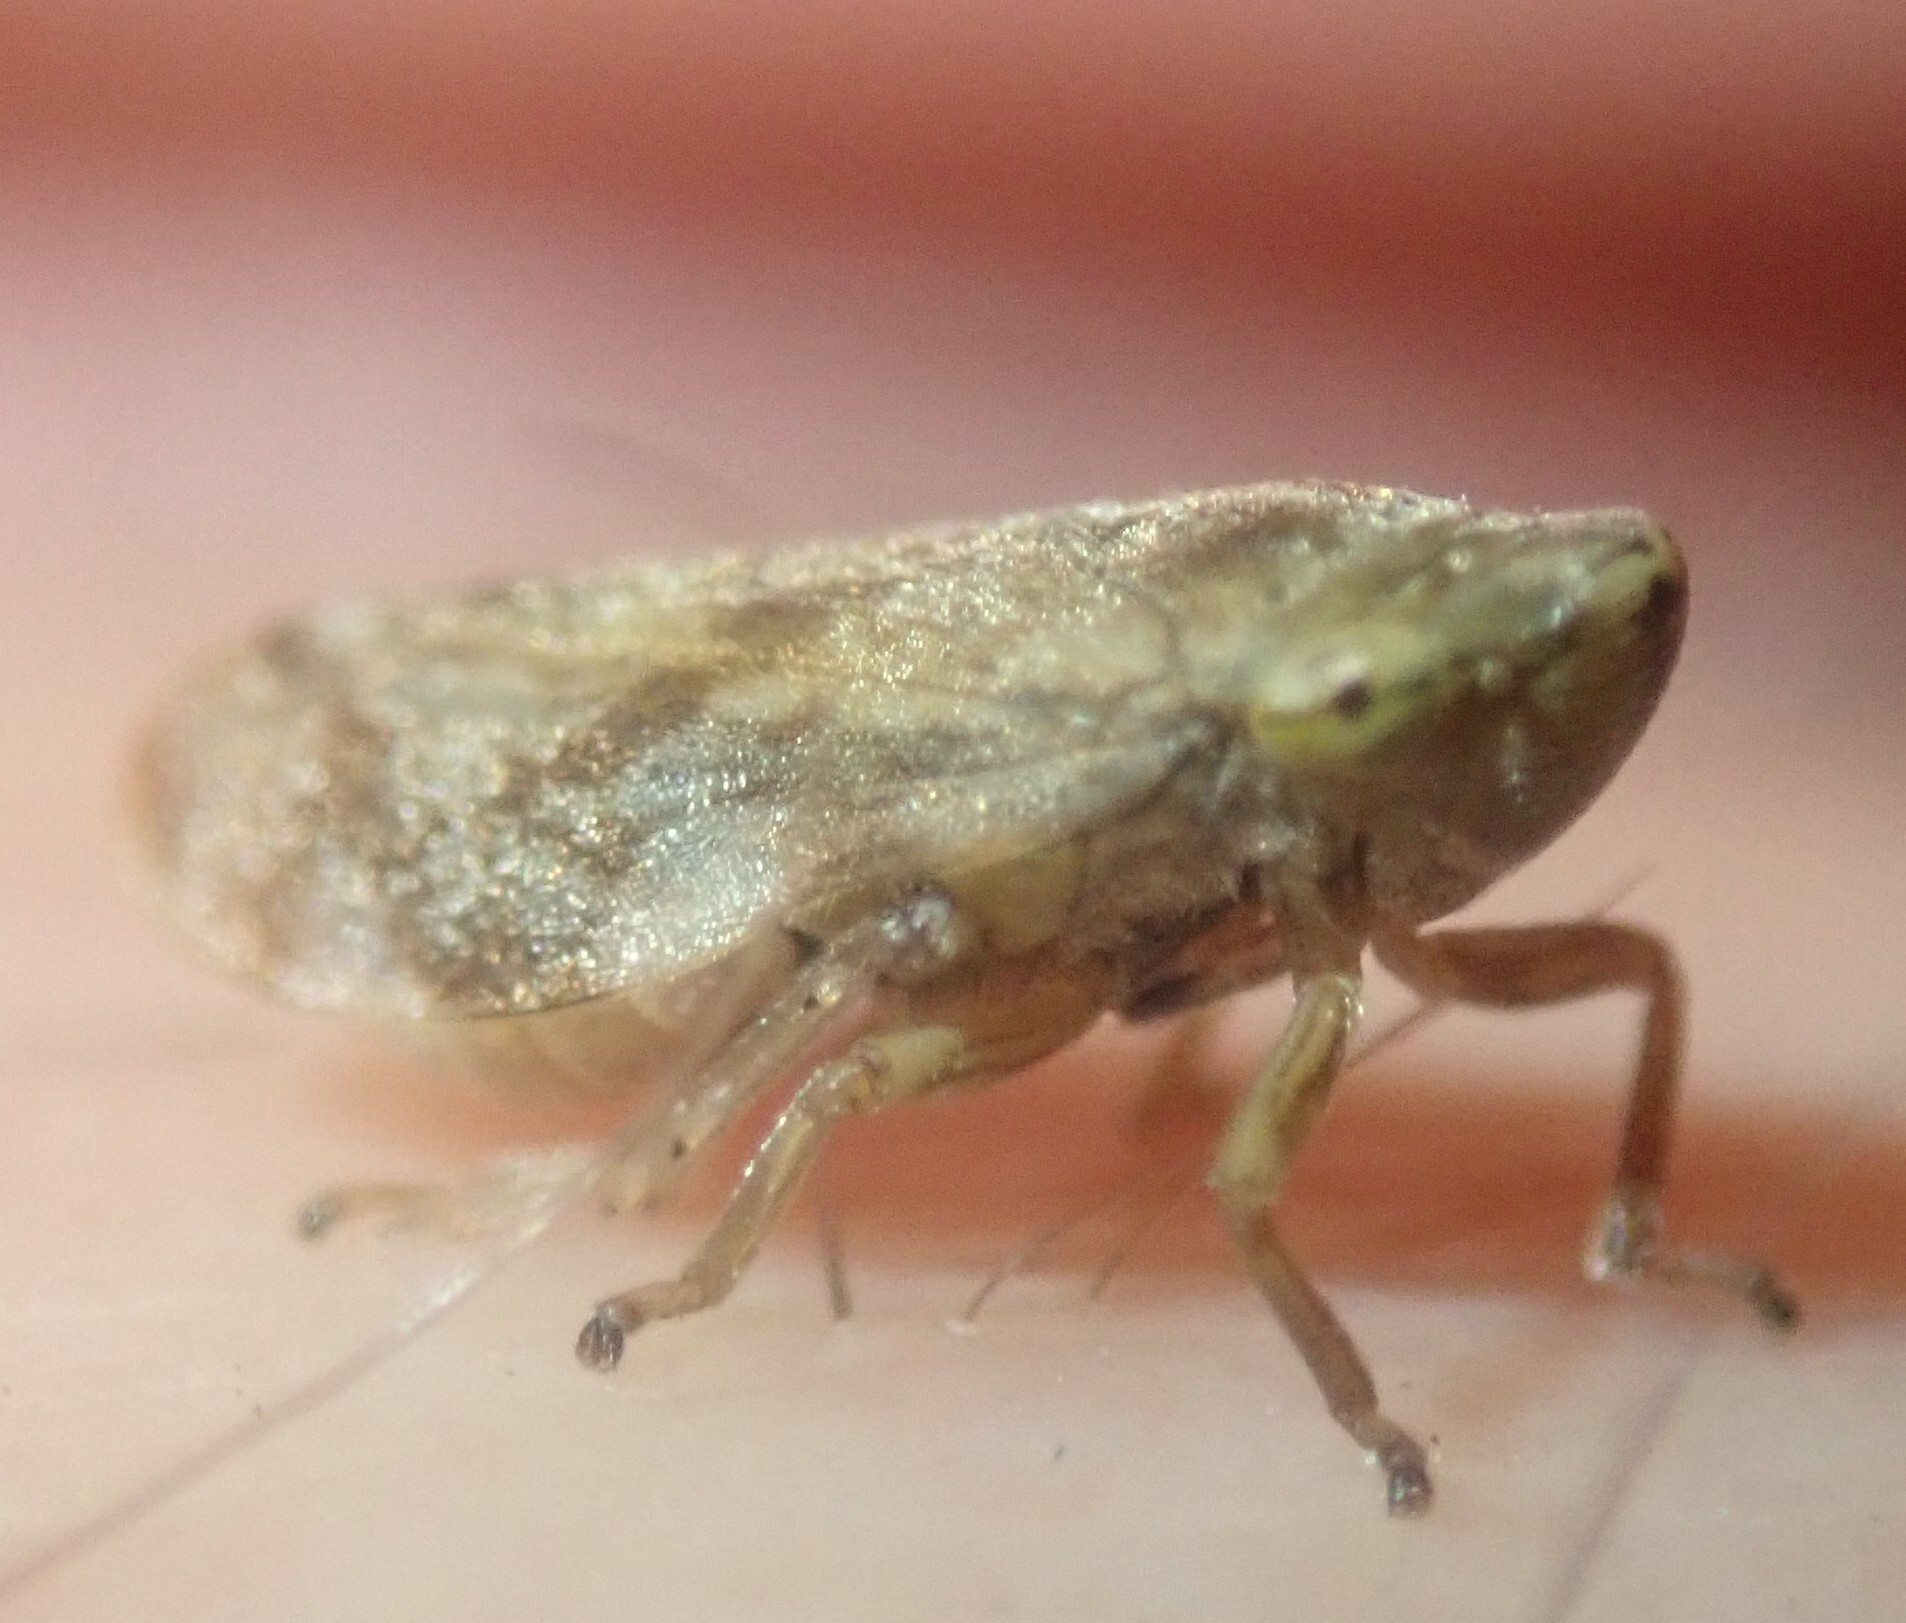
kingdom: Animalia
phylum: Arthropoda
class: Insecta
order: Hemiptera
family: Aphrophoridae
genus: Philaenus
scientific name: Philaenus spumarius
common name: Meadow spittlebug
